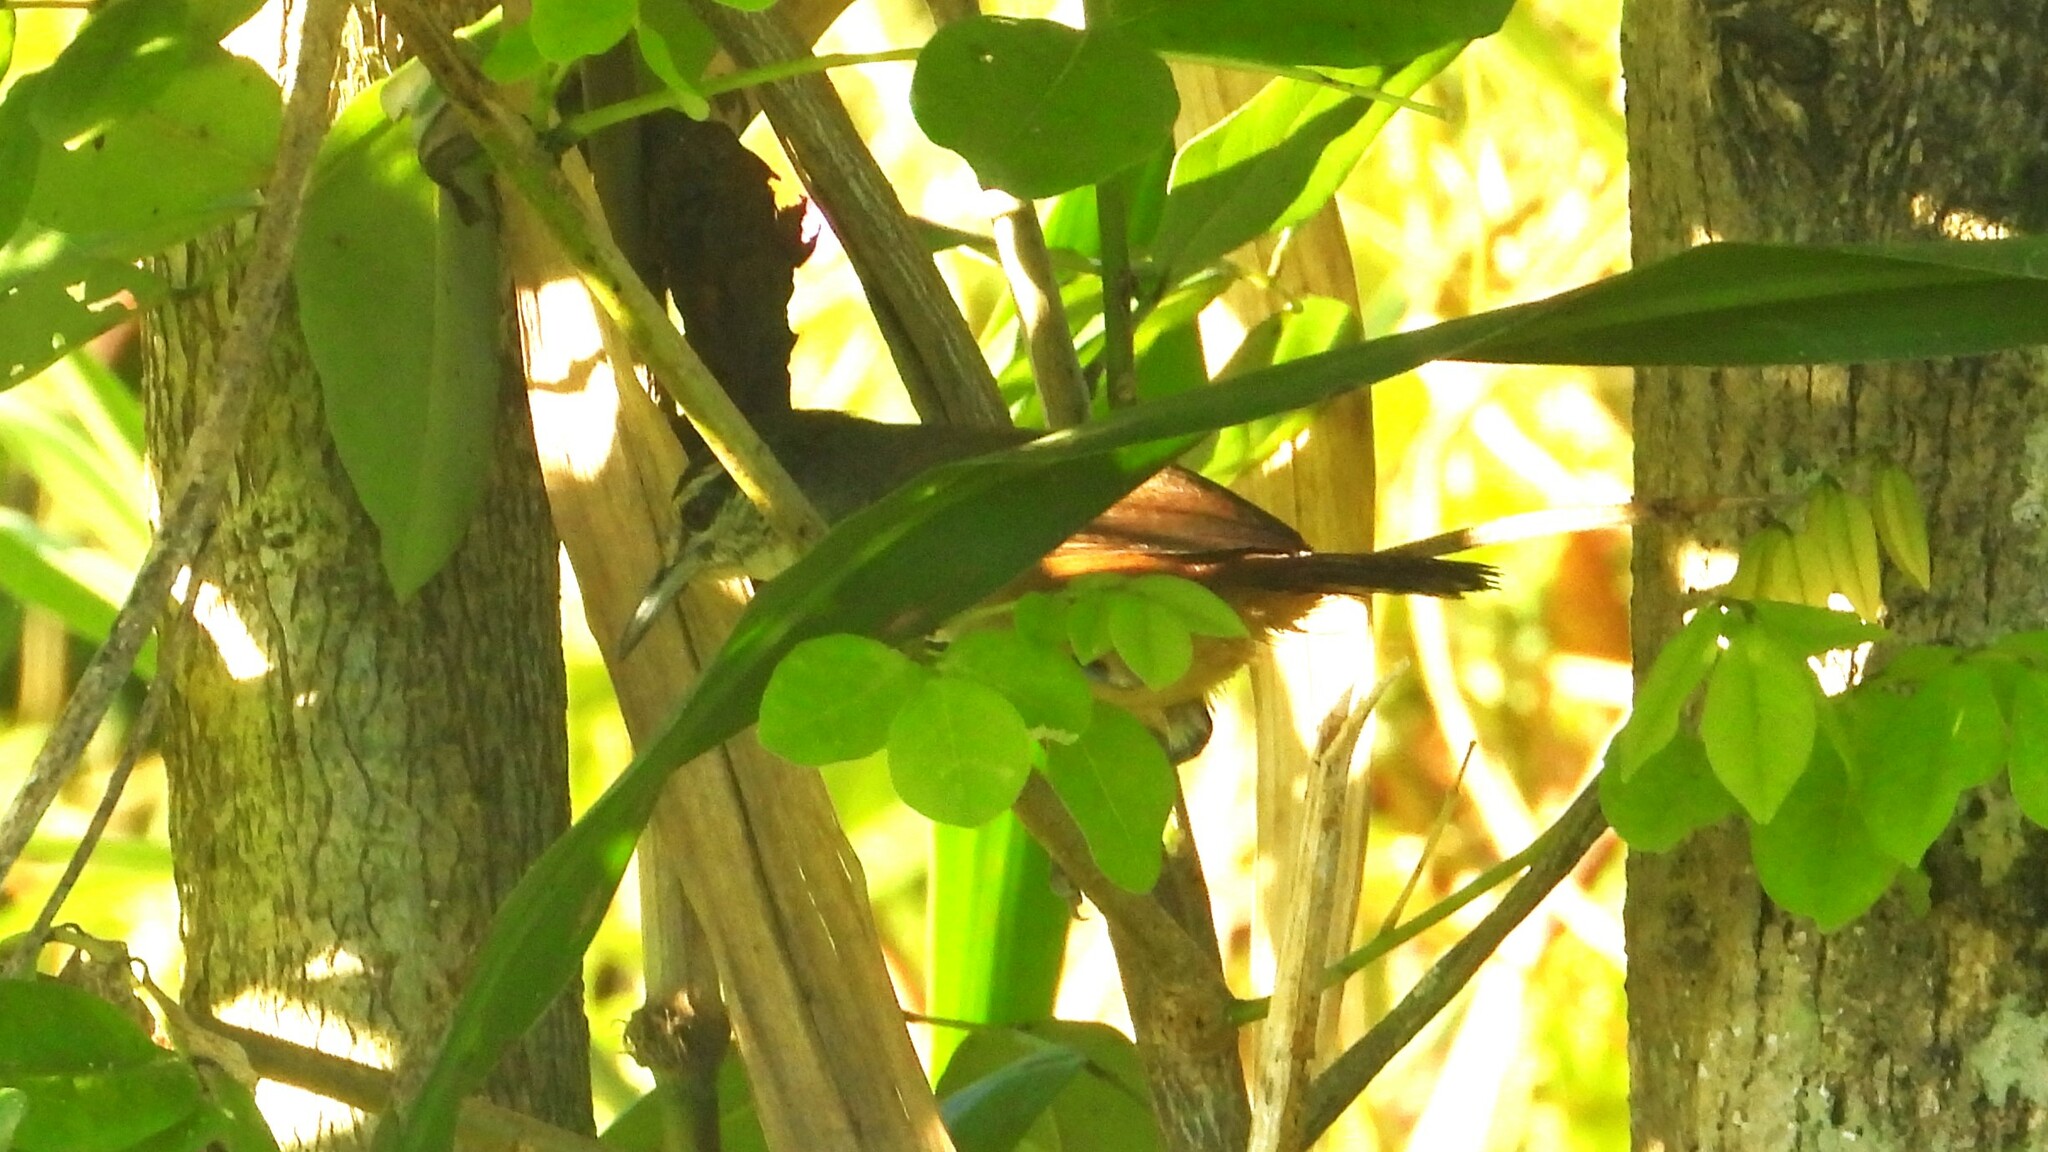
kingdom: Animalia
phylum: Chordata
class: Aves
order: Passeriformes
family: Troglodytidae
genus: Cantorchilus
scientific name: Cantorchilus modestus
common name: Cabanis's wren
